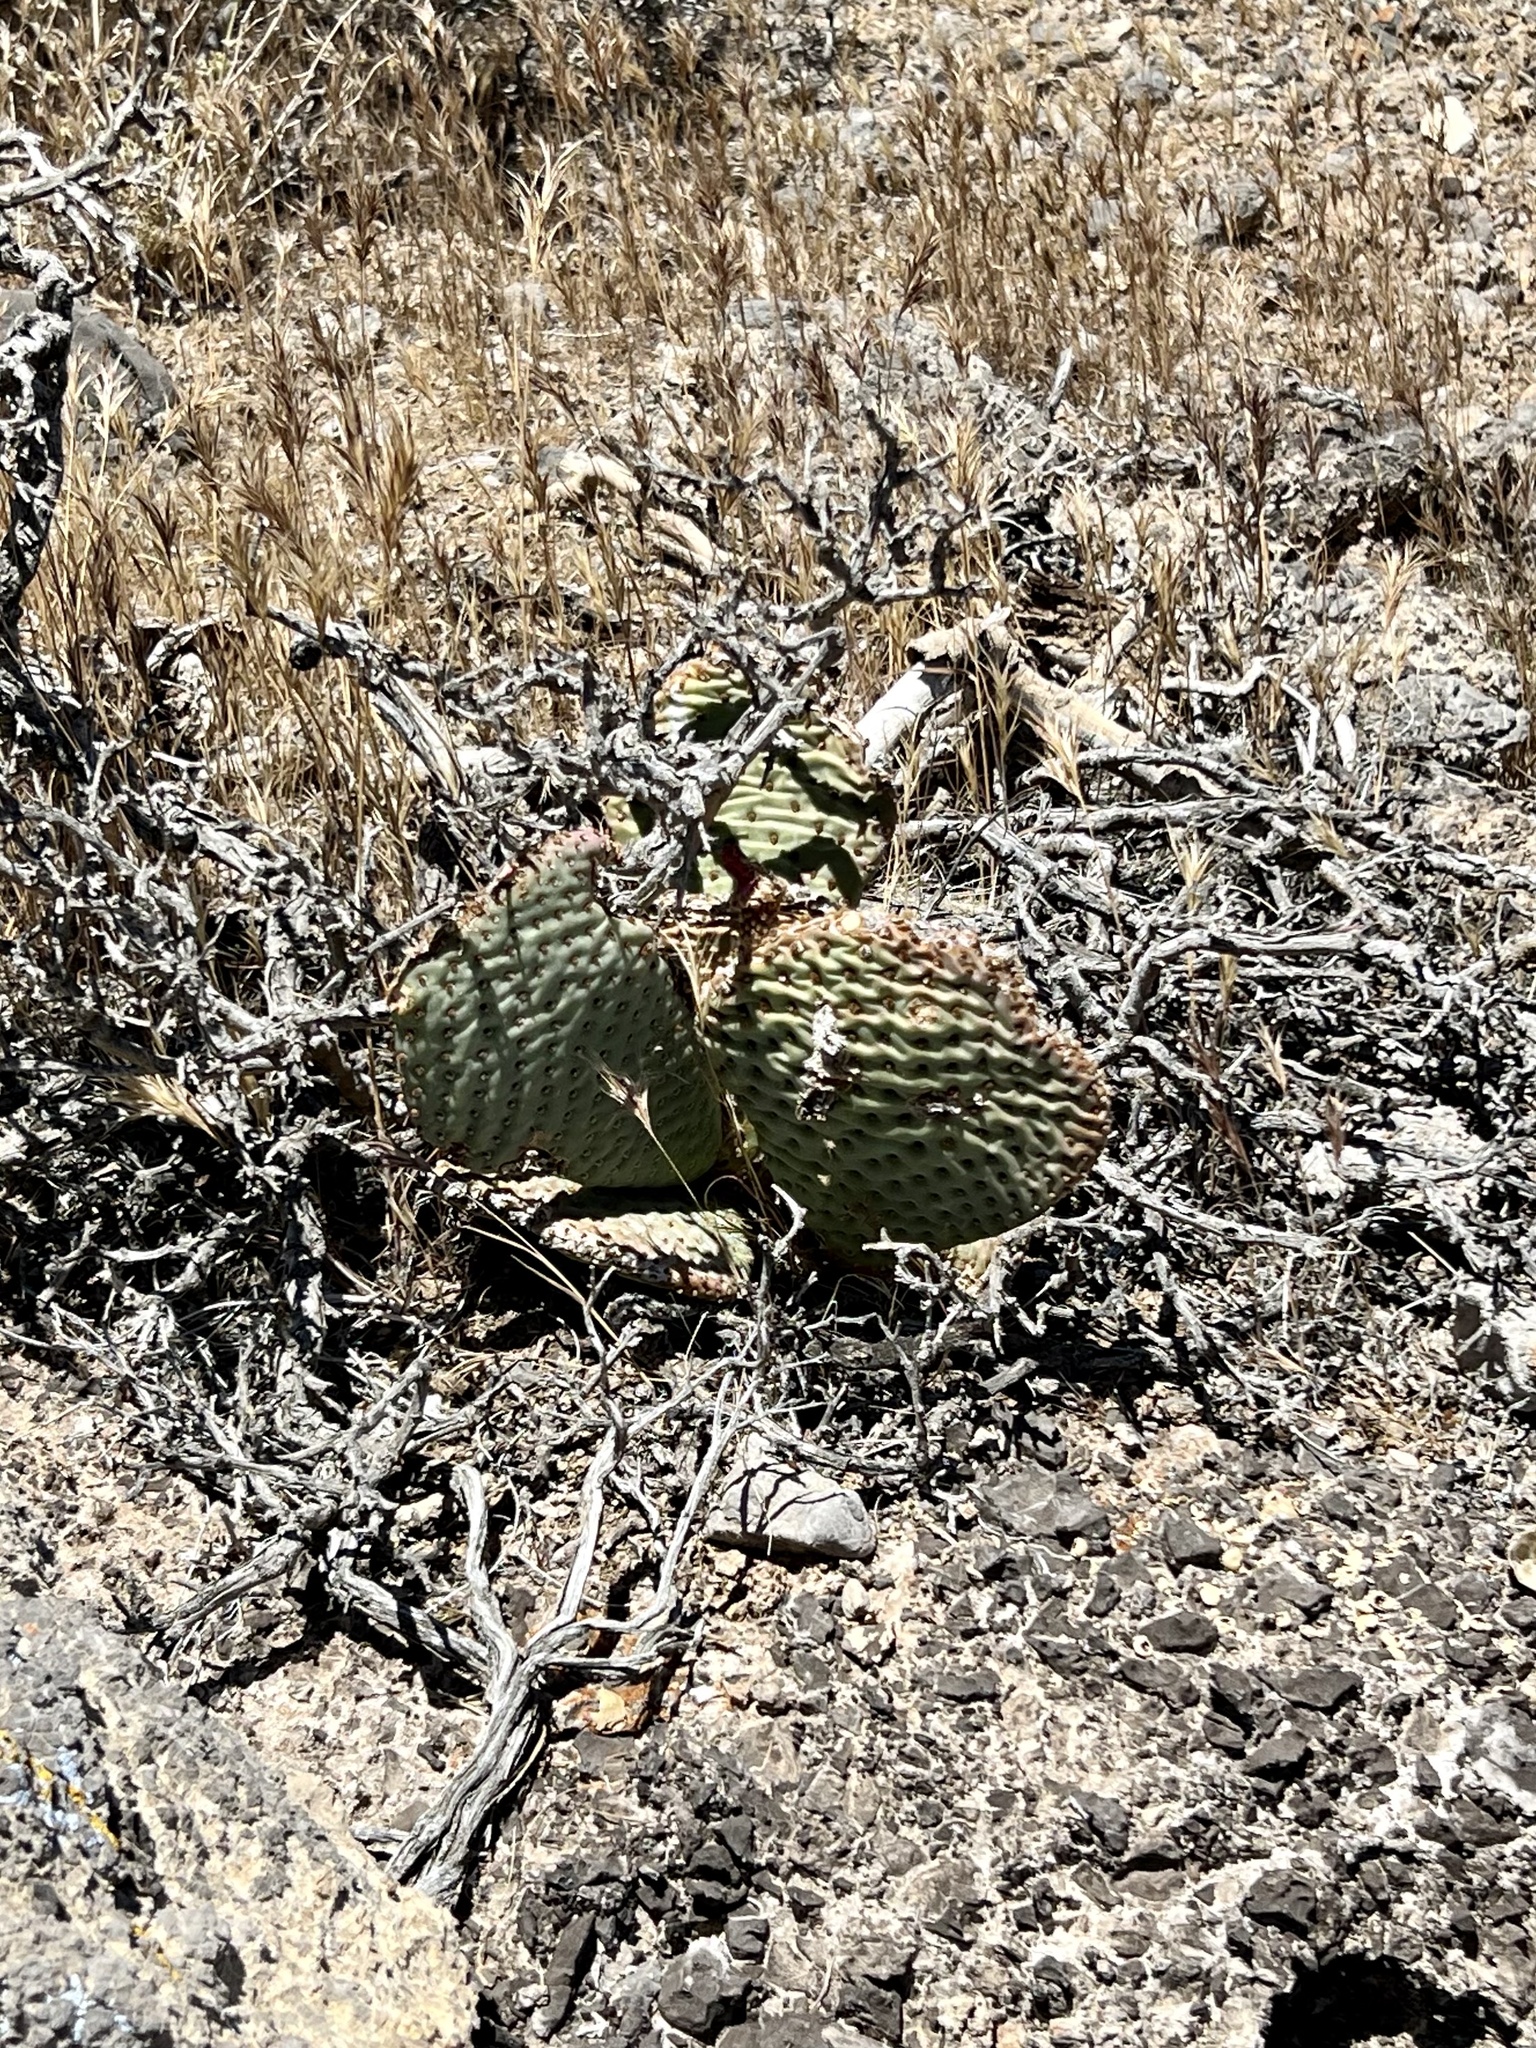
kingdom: Plantae
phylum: Tracheophyta
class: Magnoliopsida
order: Caryophyllales
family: Cactaceae
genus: Opuntia
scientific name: Opuntia basilaris
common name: Beavertail prickly-pear
